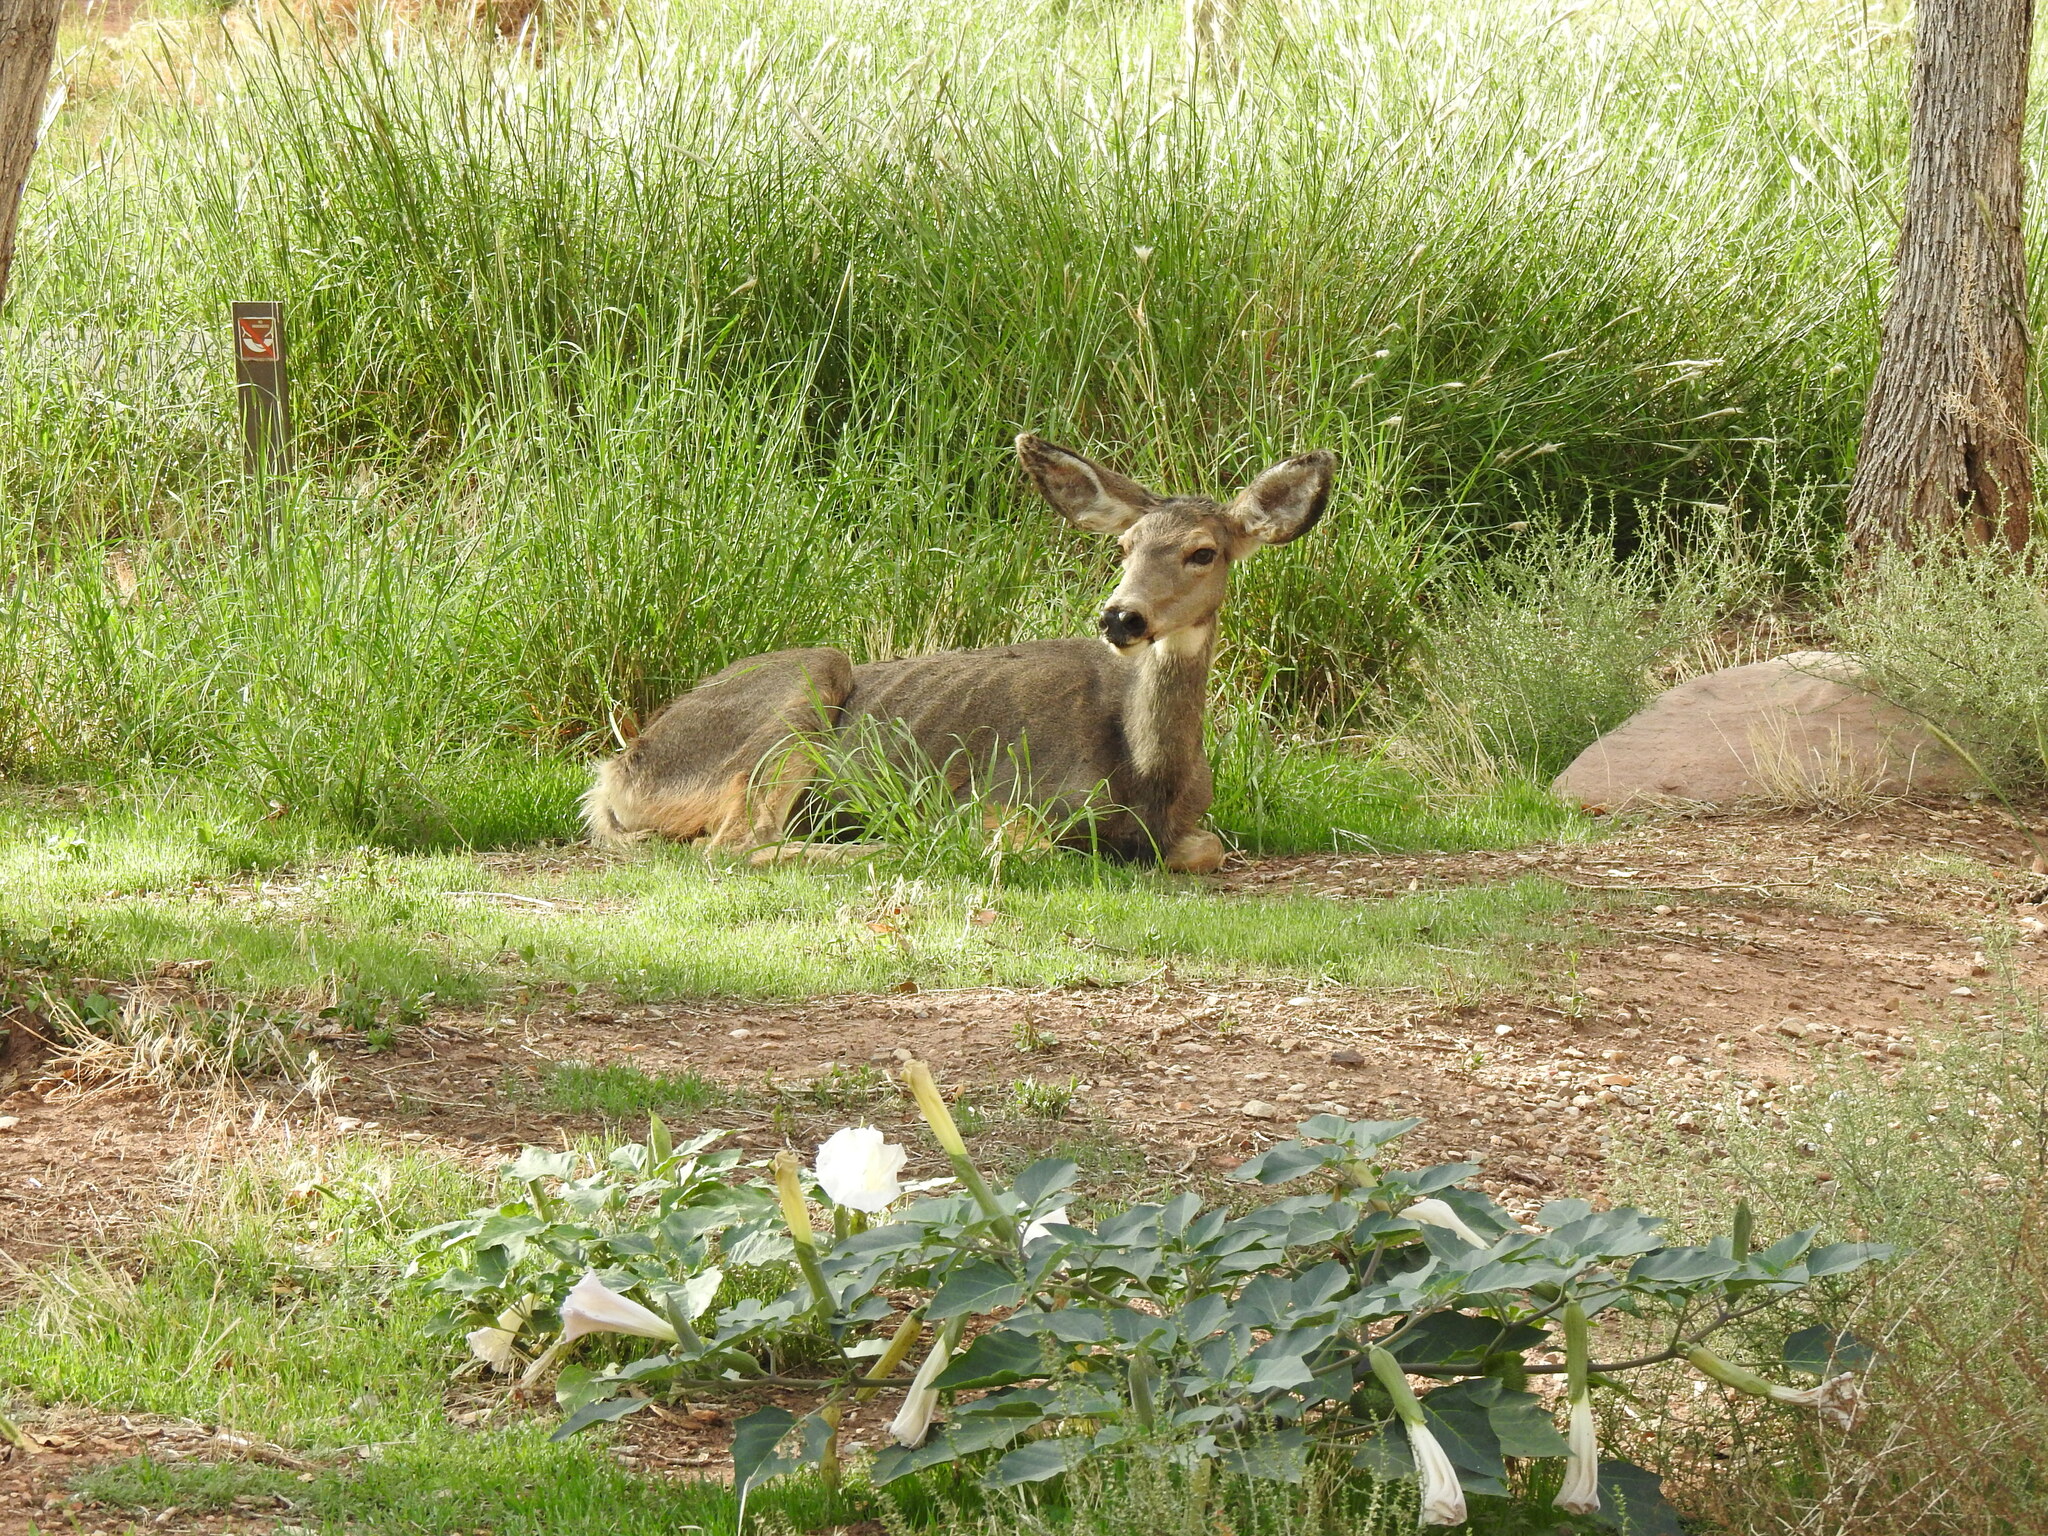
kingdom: Animalia
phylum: Chordata
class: Mammalia
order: Artiodactyla
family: Cervidae
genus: Odocoileus
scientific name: Odocoileus hemionus
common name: Mule deer
